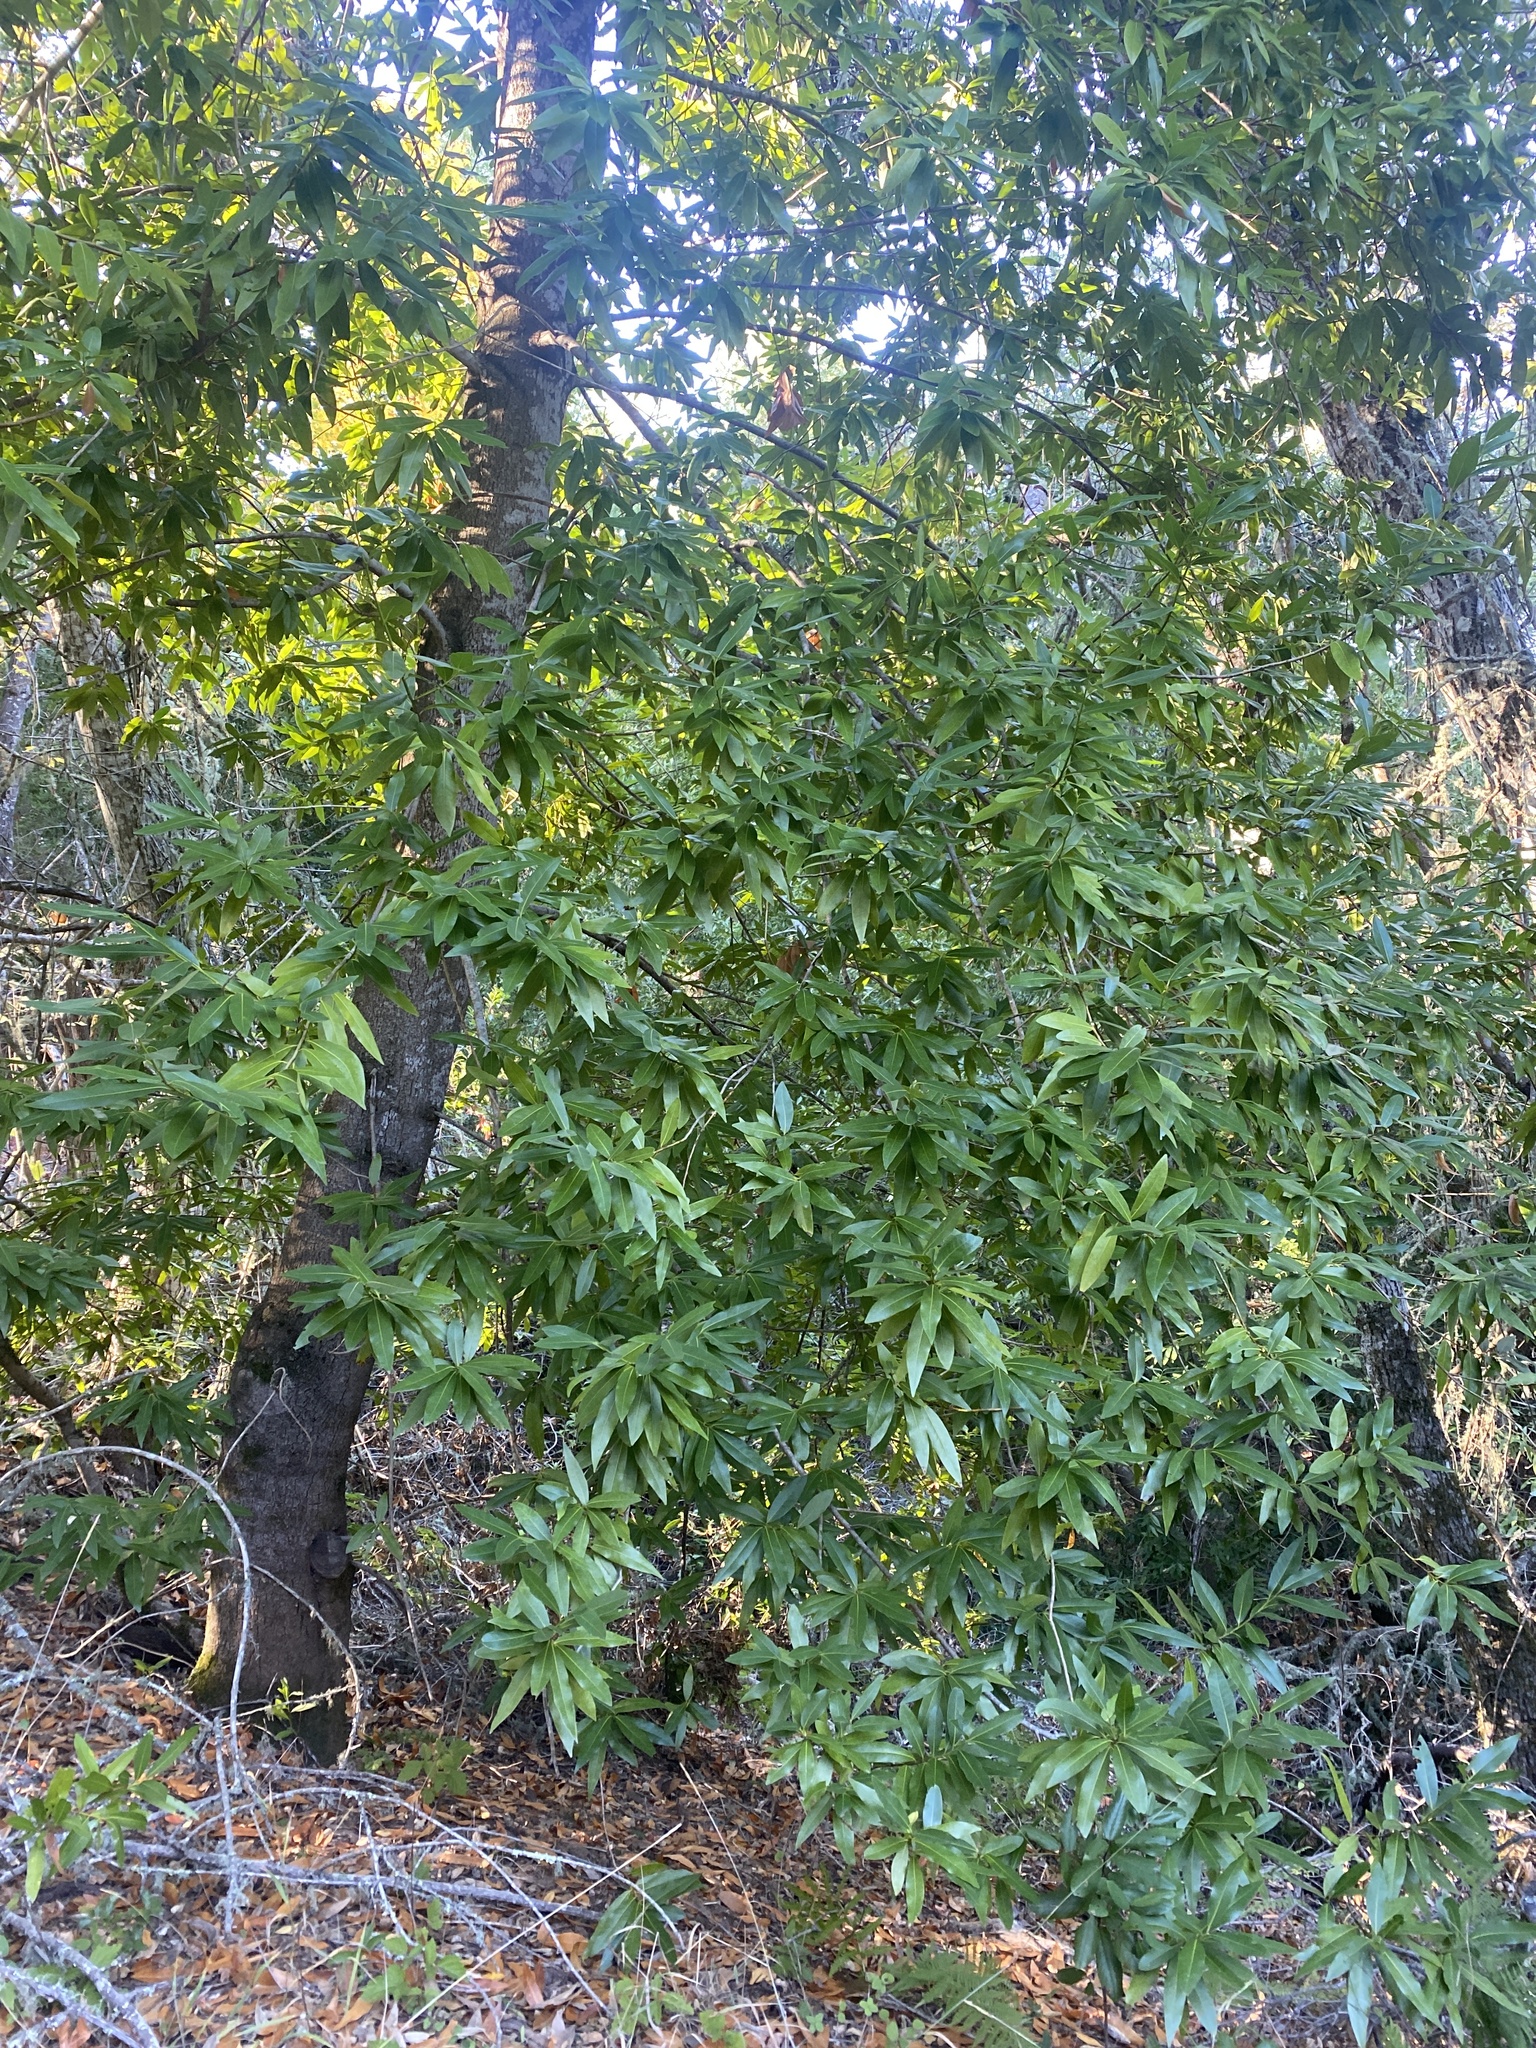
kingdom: Plantae
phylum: Tracheophyta
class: Magnoliopsida
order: Laurales
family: Lauraceae
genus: Umbellularia
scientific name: Umbellularia californica
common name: California bay
